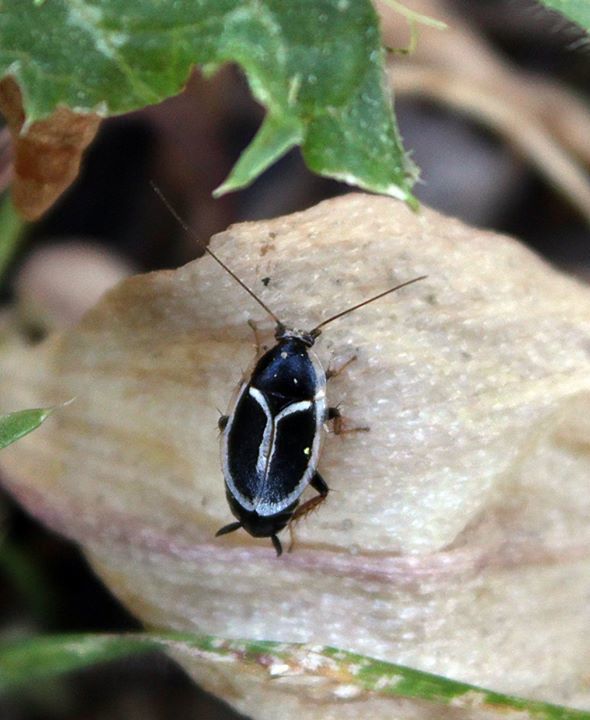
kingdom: Animalia
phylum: Arthropoda
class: Insecta
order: Blattodea
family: Ectobiidae
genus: Phyllodromica
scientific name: Phyllodromica marginata
